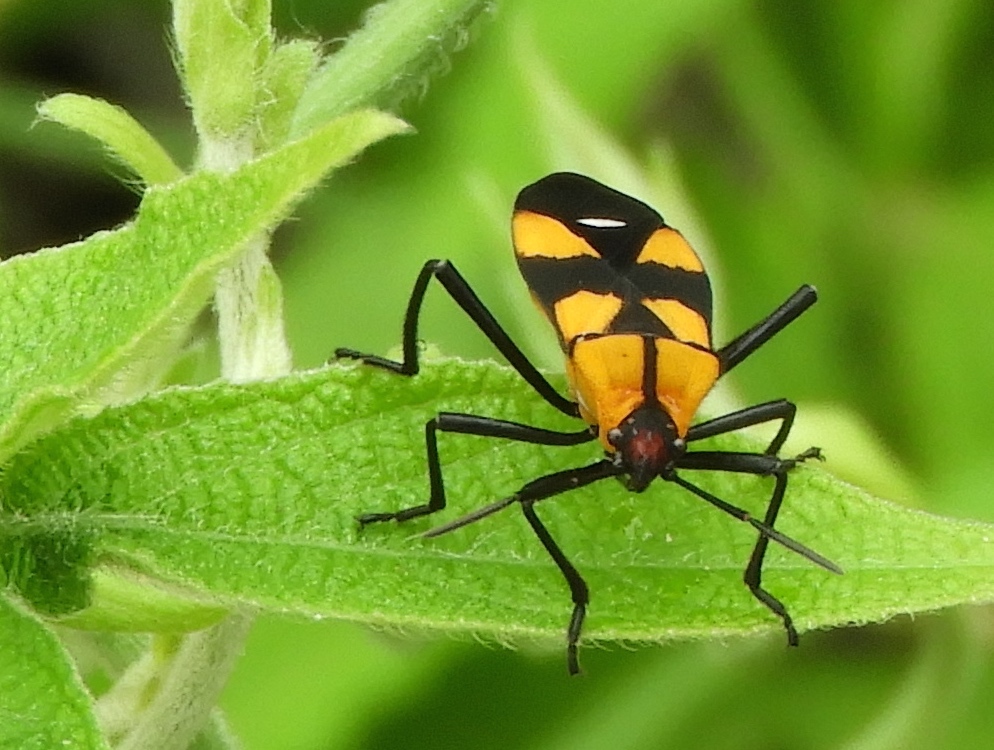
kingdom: Animalia
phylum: Arthropoda
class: Insecta
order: Hemiptera
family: Lygaeidae
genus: Oncopeltus
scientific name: Oncopeltus spectabilis
